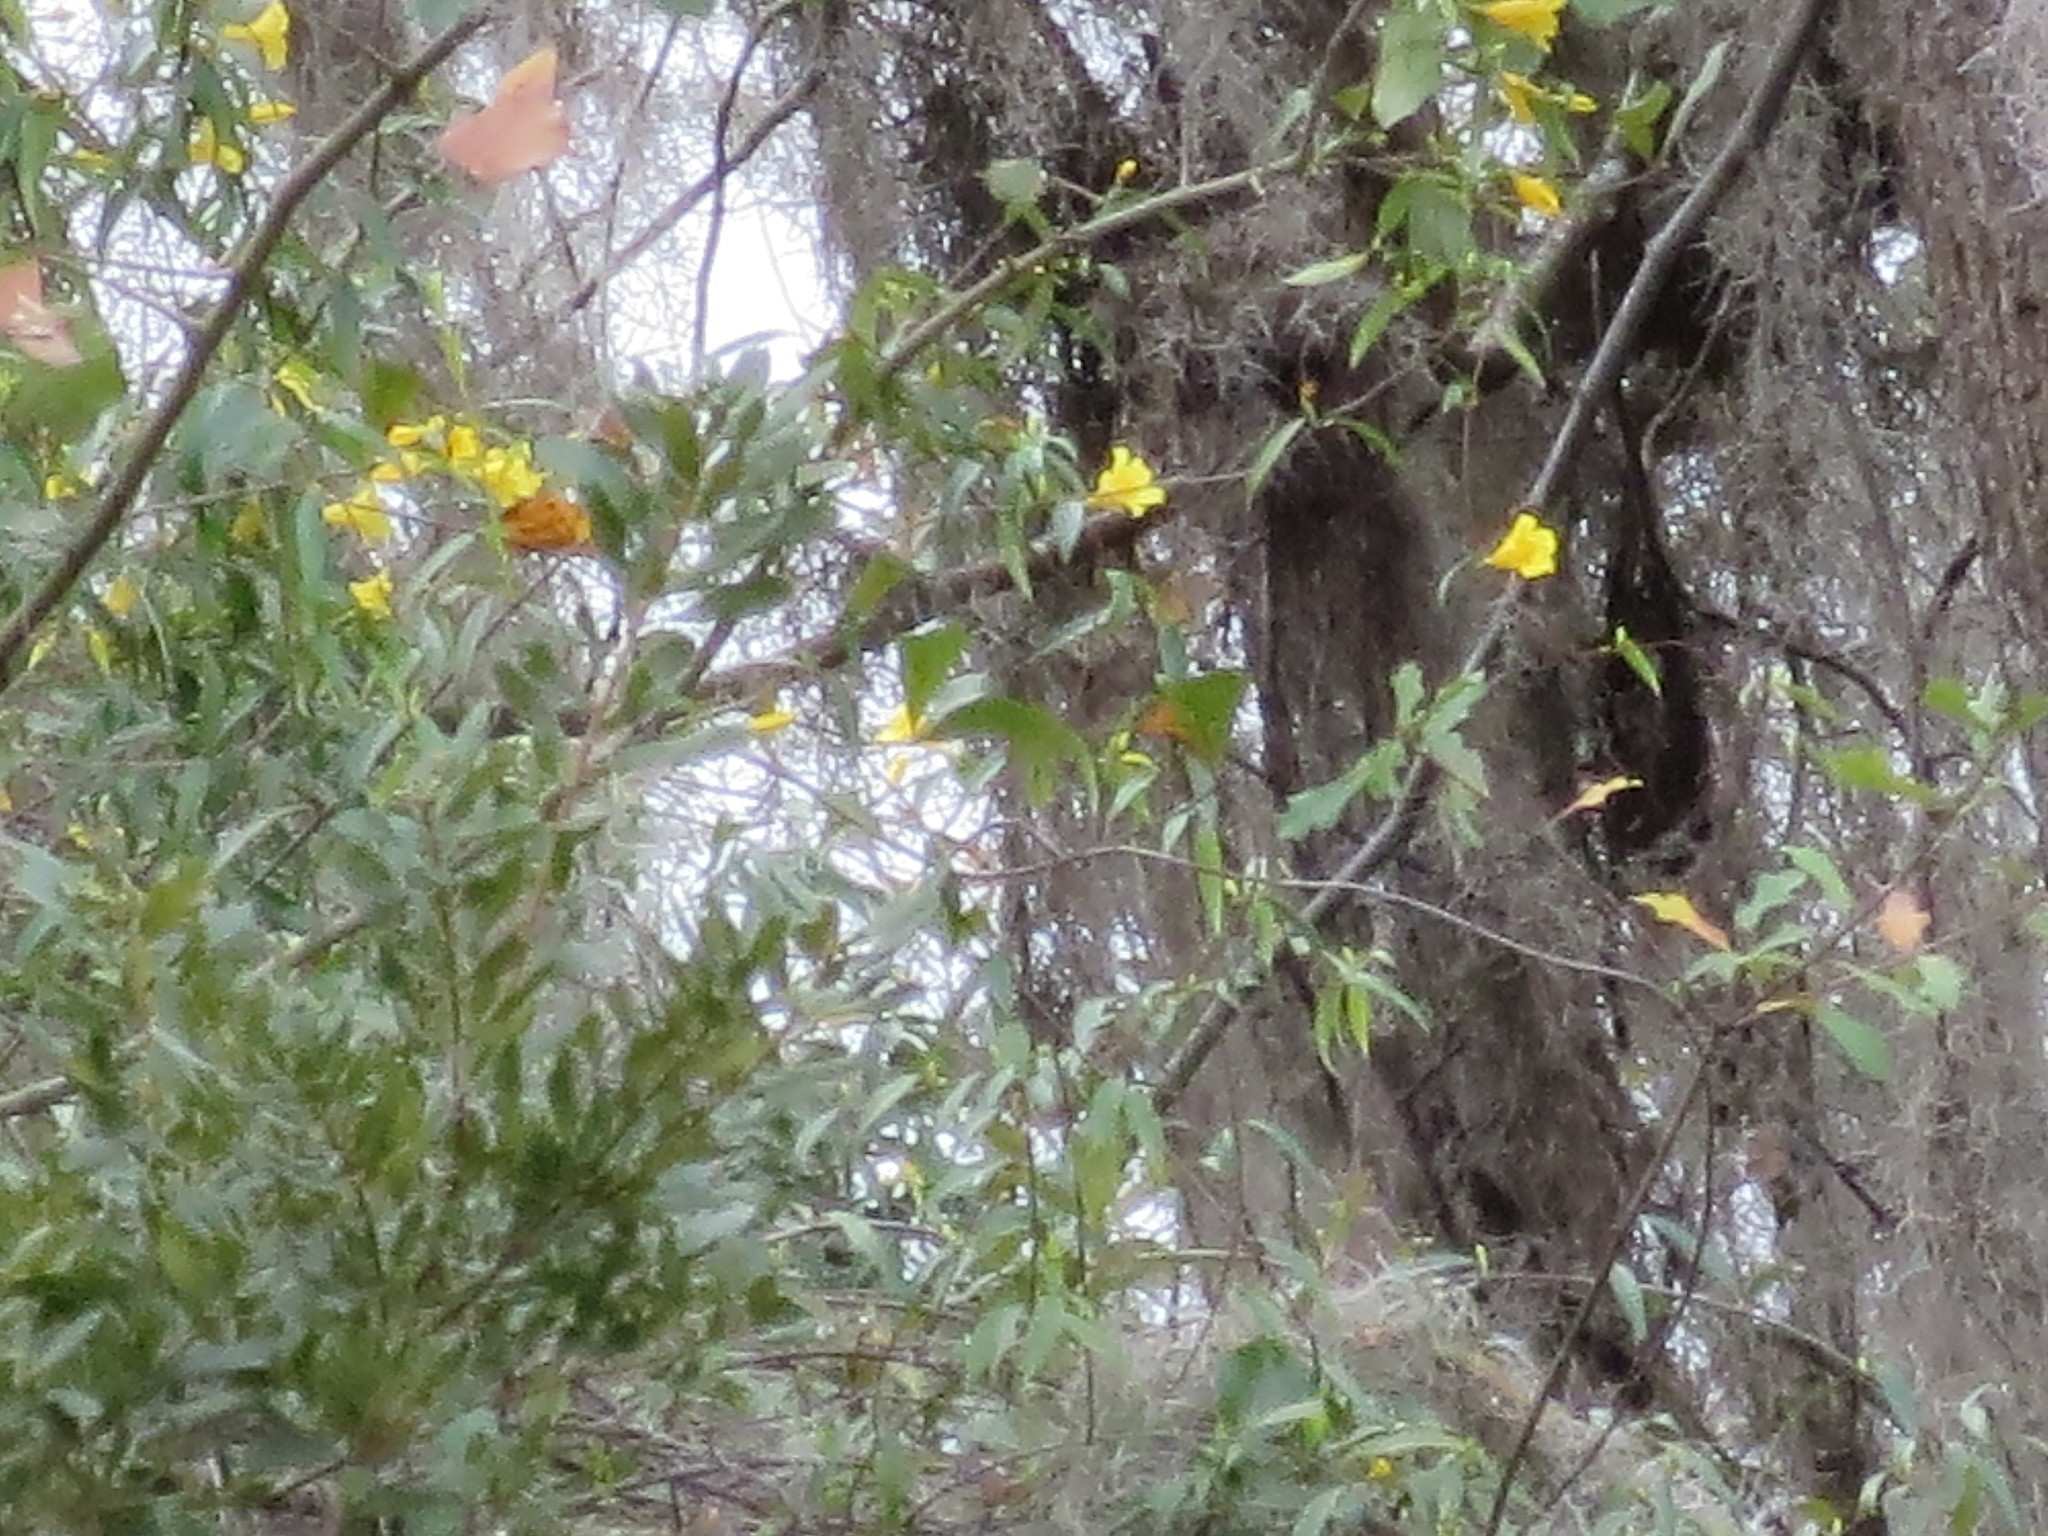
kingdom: Plantae
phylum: Tracheophyta
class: Magnoliopsida
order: Gentianales
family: Gelsemiaceae
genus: Gelsemium
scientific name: Gelsemium sempervirens
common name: Carolina-jasmine
